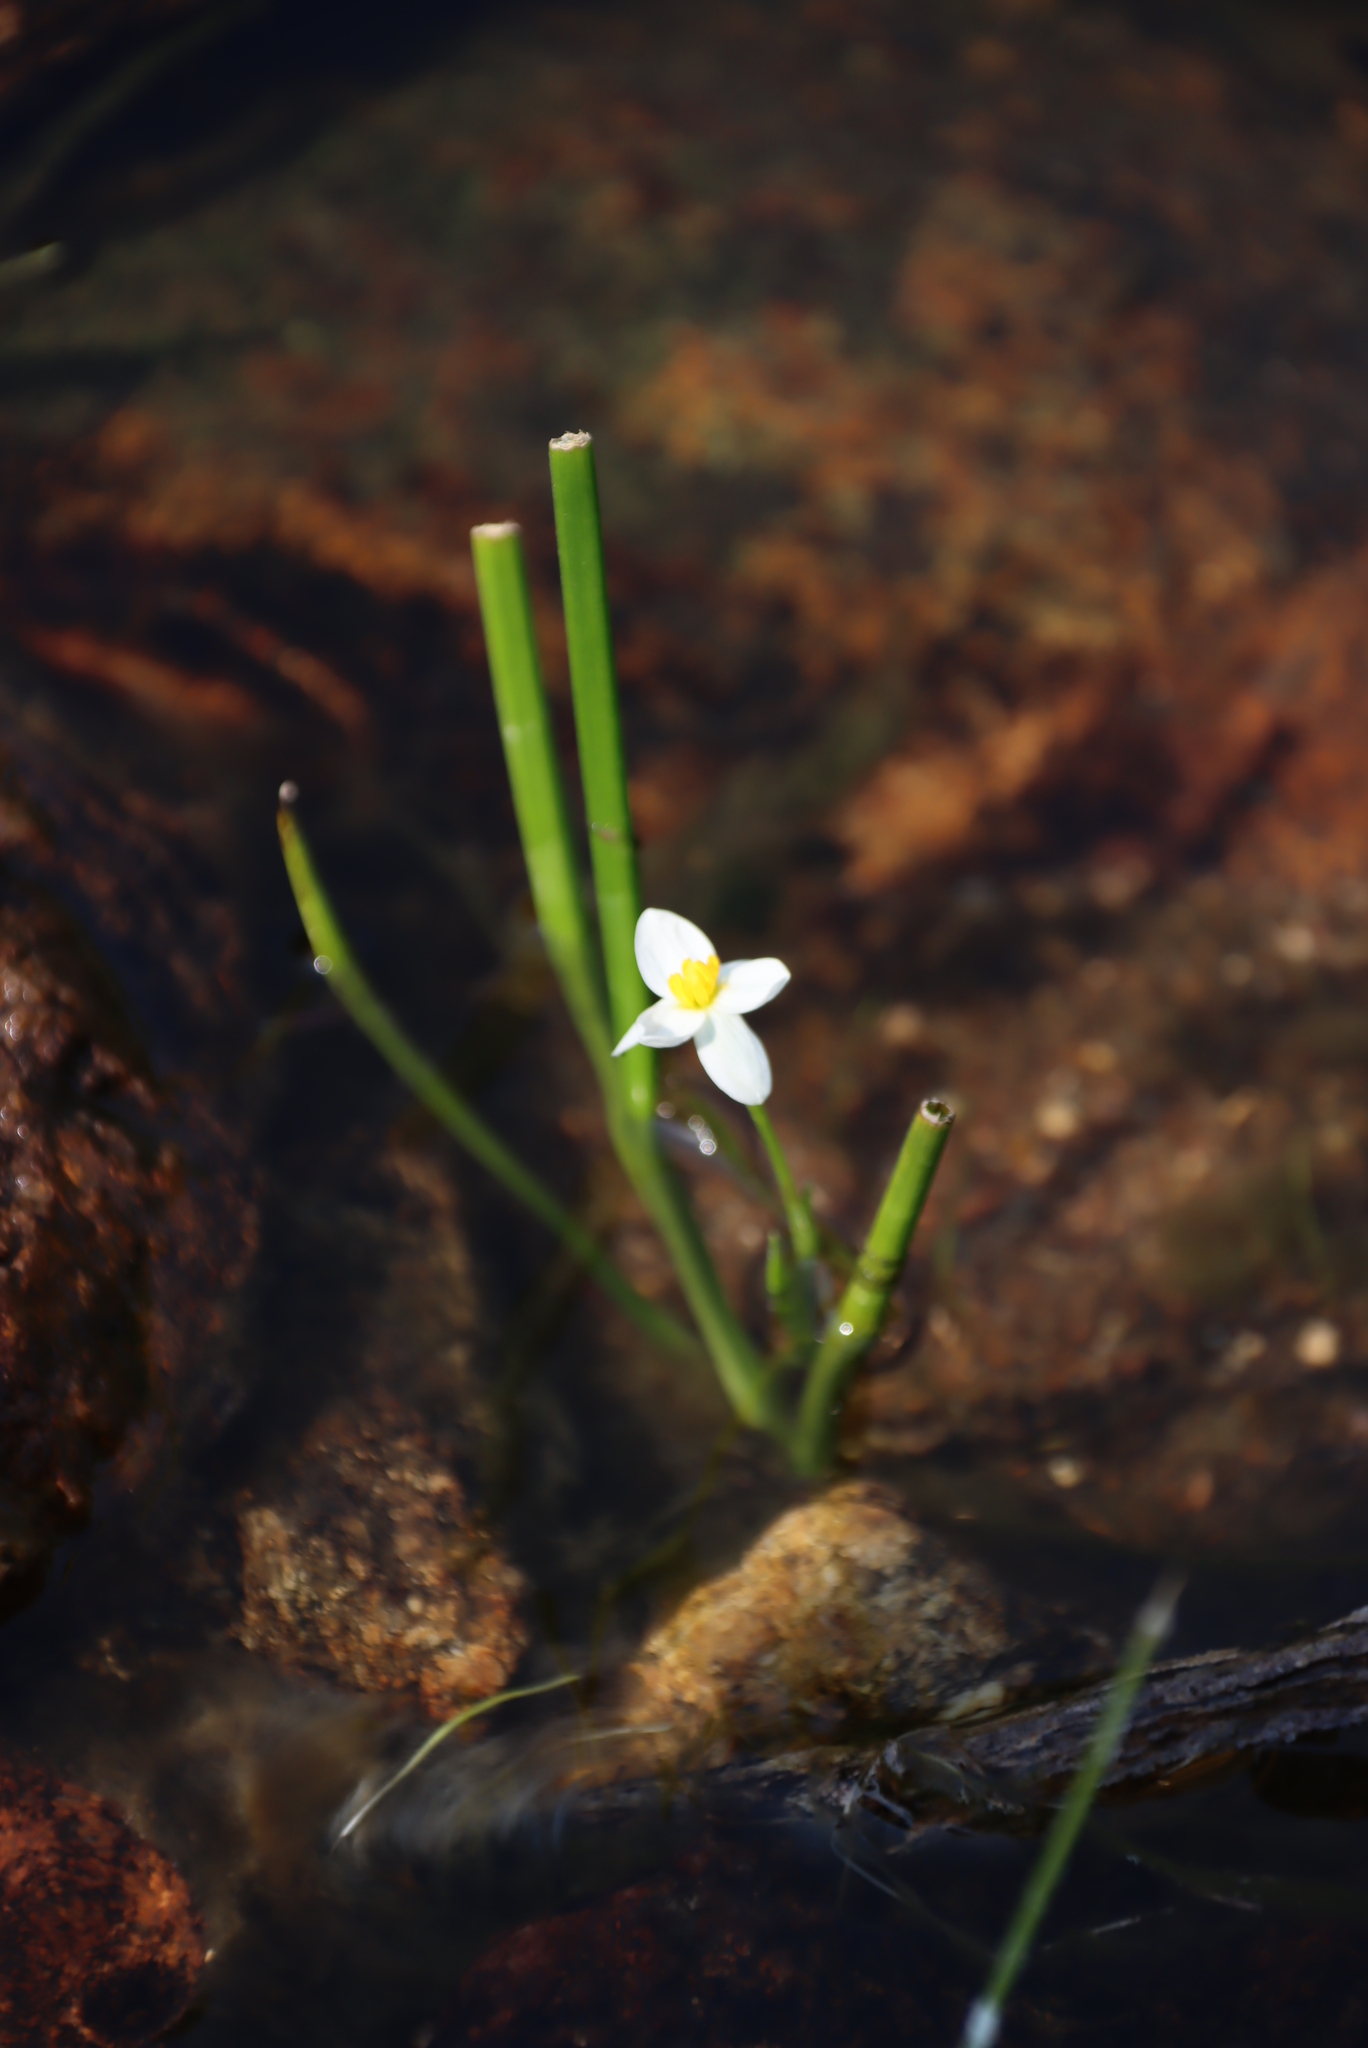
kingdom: Plantae
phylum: Tracheophyta
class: Liliopsida
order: Asparagales
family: Hypoxidaceae
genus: Pauridia
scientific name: Pauridia aquatica
